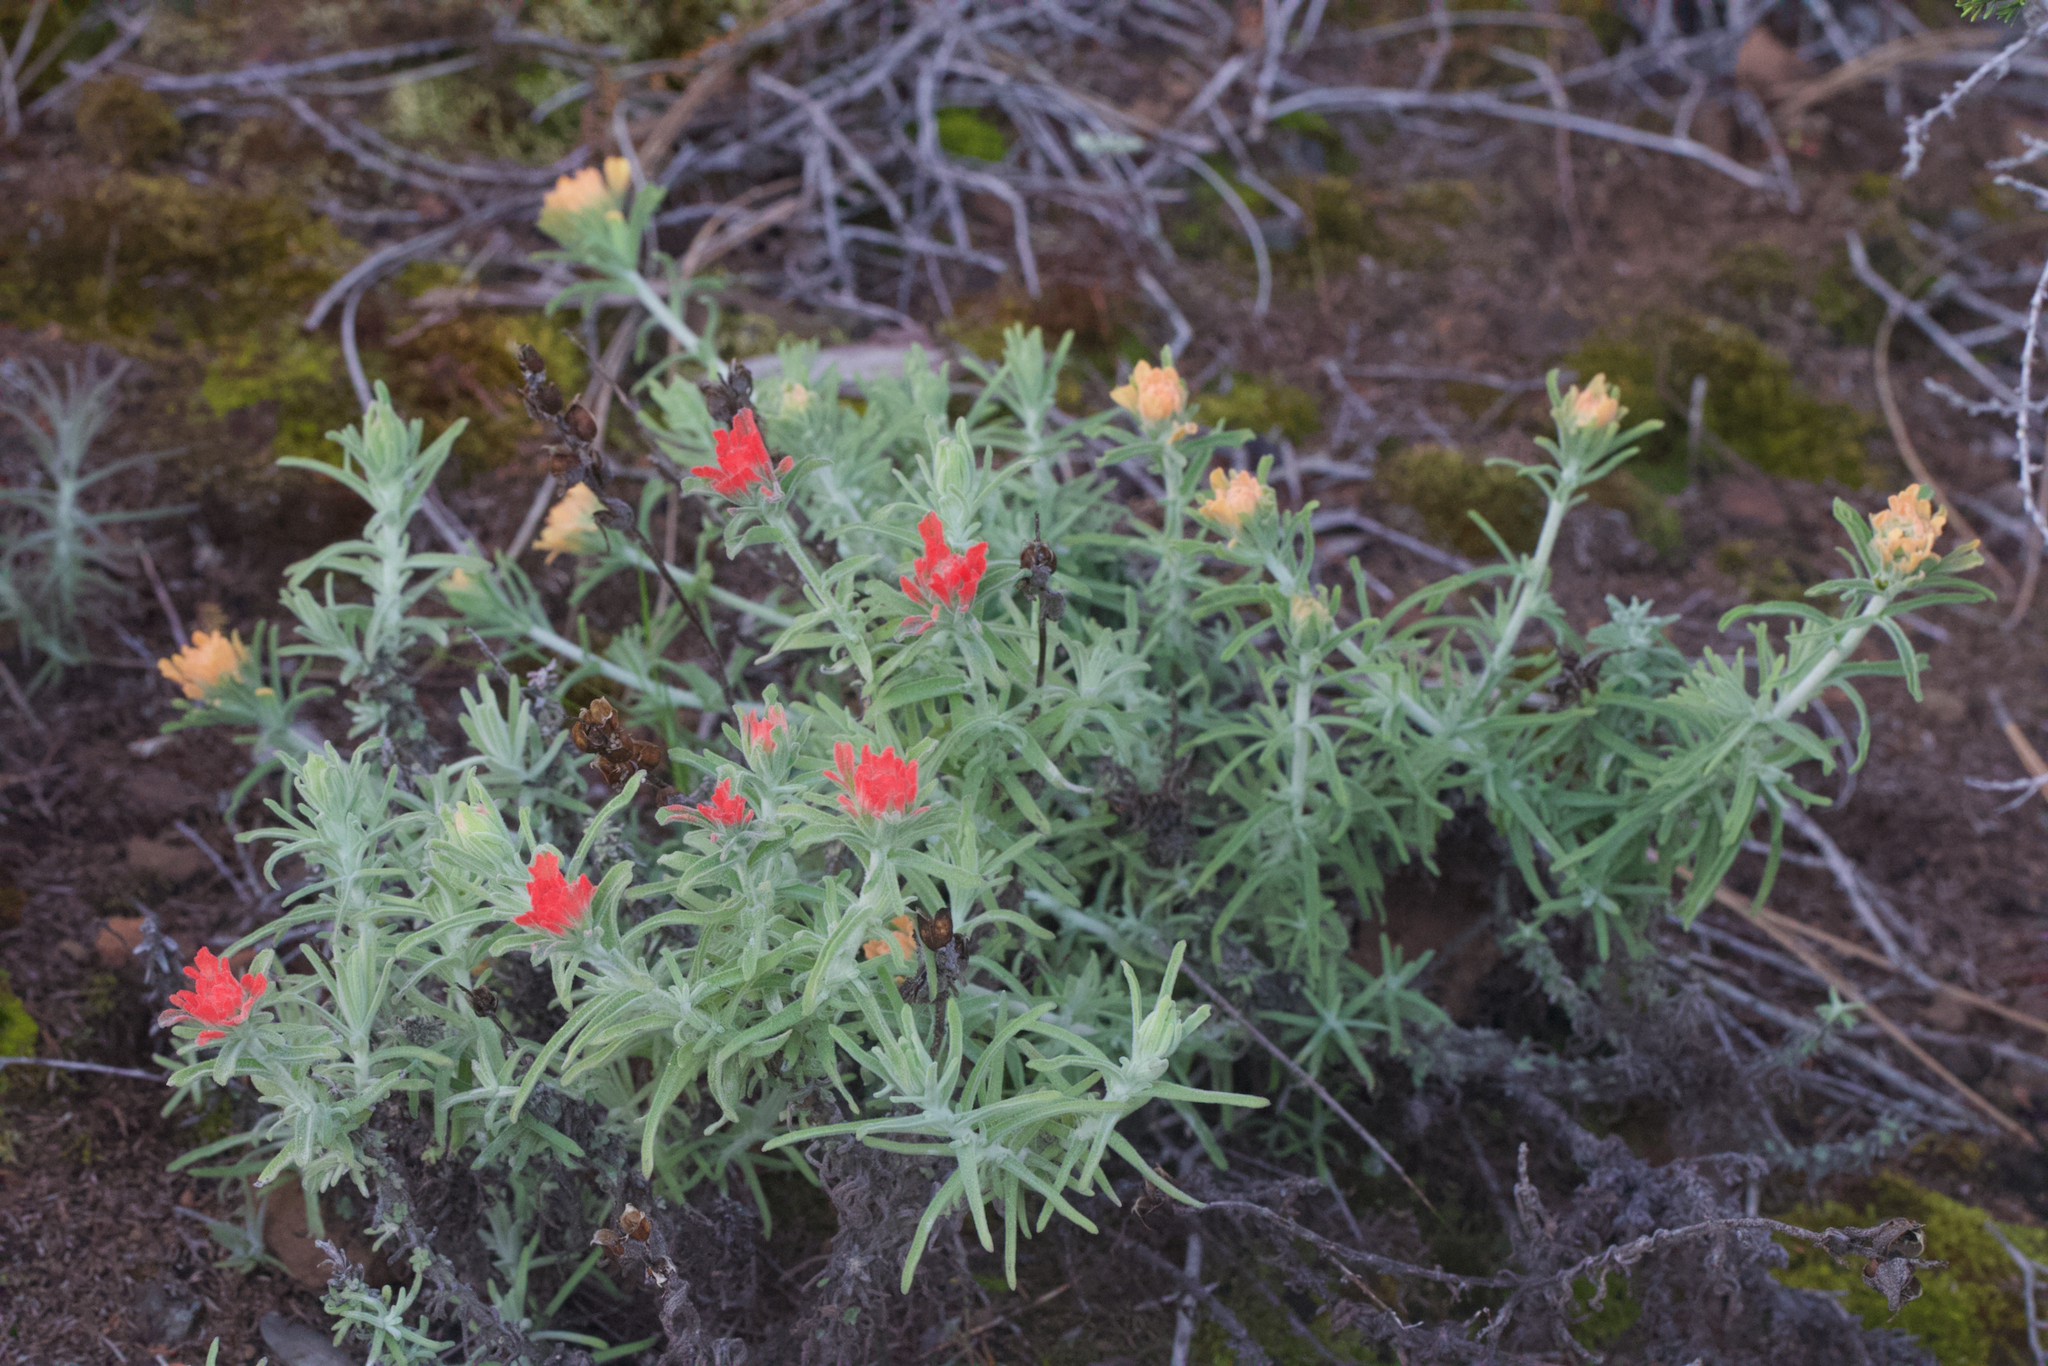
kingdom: Plantae
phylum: Tracheophyta
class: Magnoliopsida
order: Lamiales
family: Orobanchaceae
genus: Castilleja
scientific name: Castilleja foliolosa
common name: Woolly indian paintbrush
